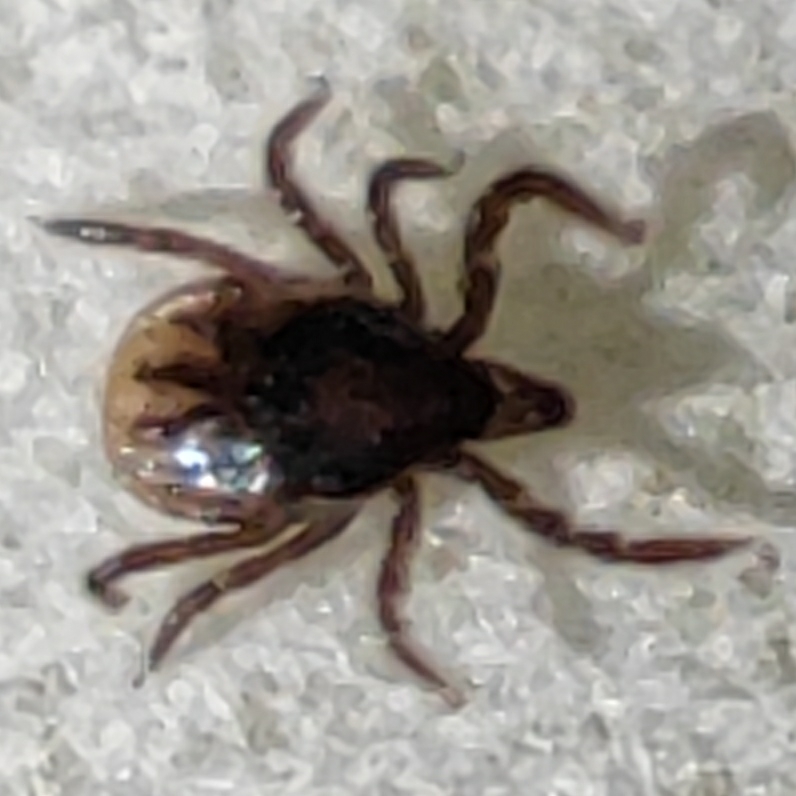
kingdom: Animalia
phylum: Arthropoda
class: Arachnida
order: Ixodida
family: Ixodidae
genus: Ixodes
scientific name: Ixodes ricinus
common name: Castor bean tick
